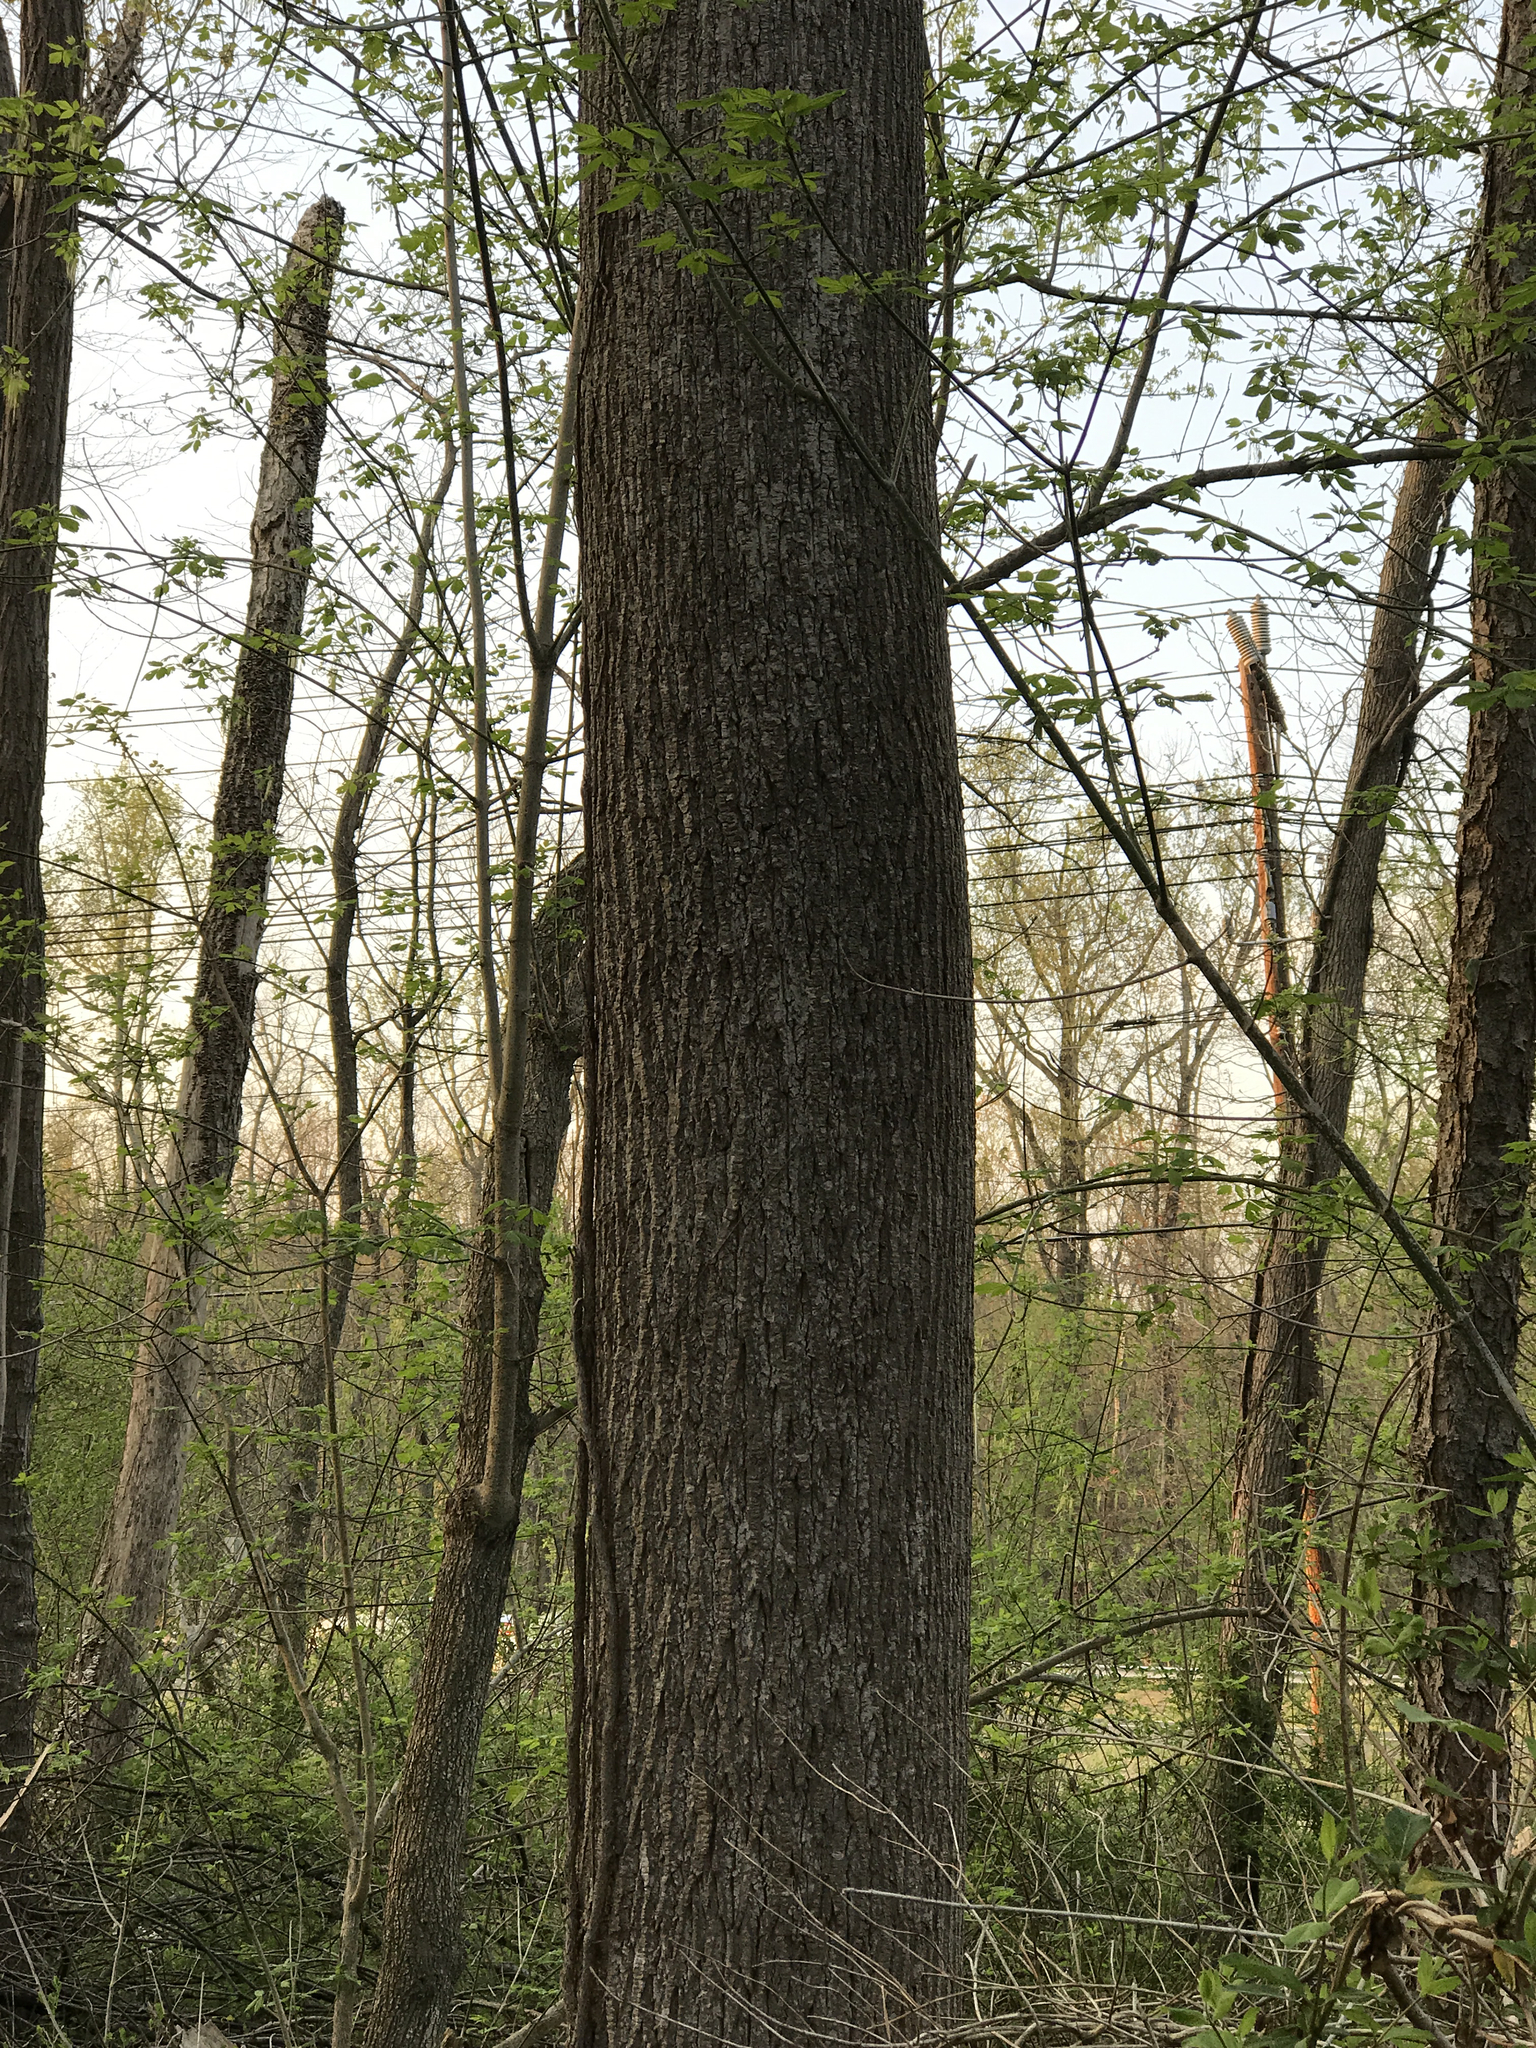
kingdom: Plantae
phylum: Tracheophyta
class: Magnoliopsida
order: Magnoliales
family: Magnoliaceae
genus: Liriodendron
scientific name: Liriodendron tulipifera
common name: Tulip tree
